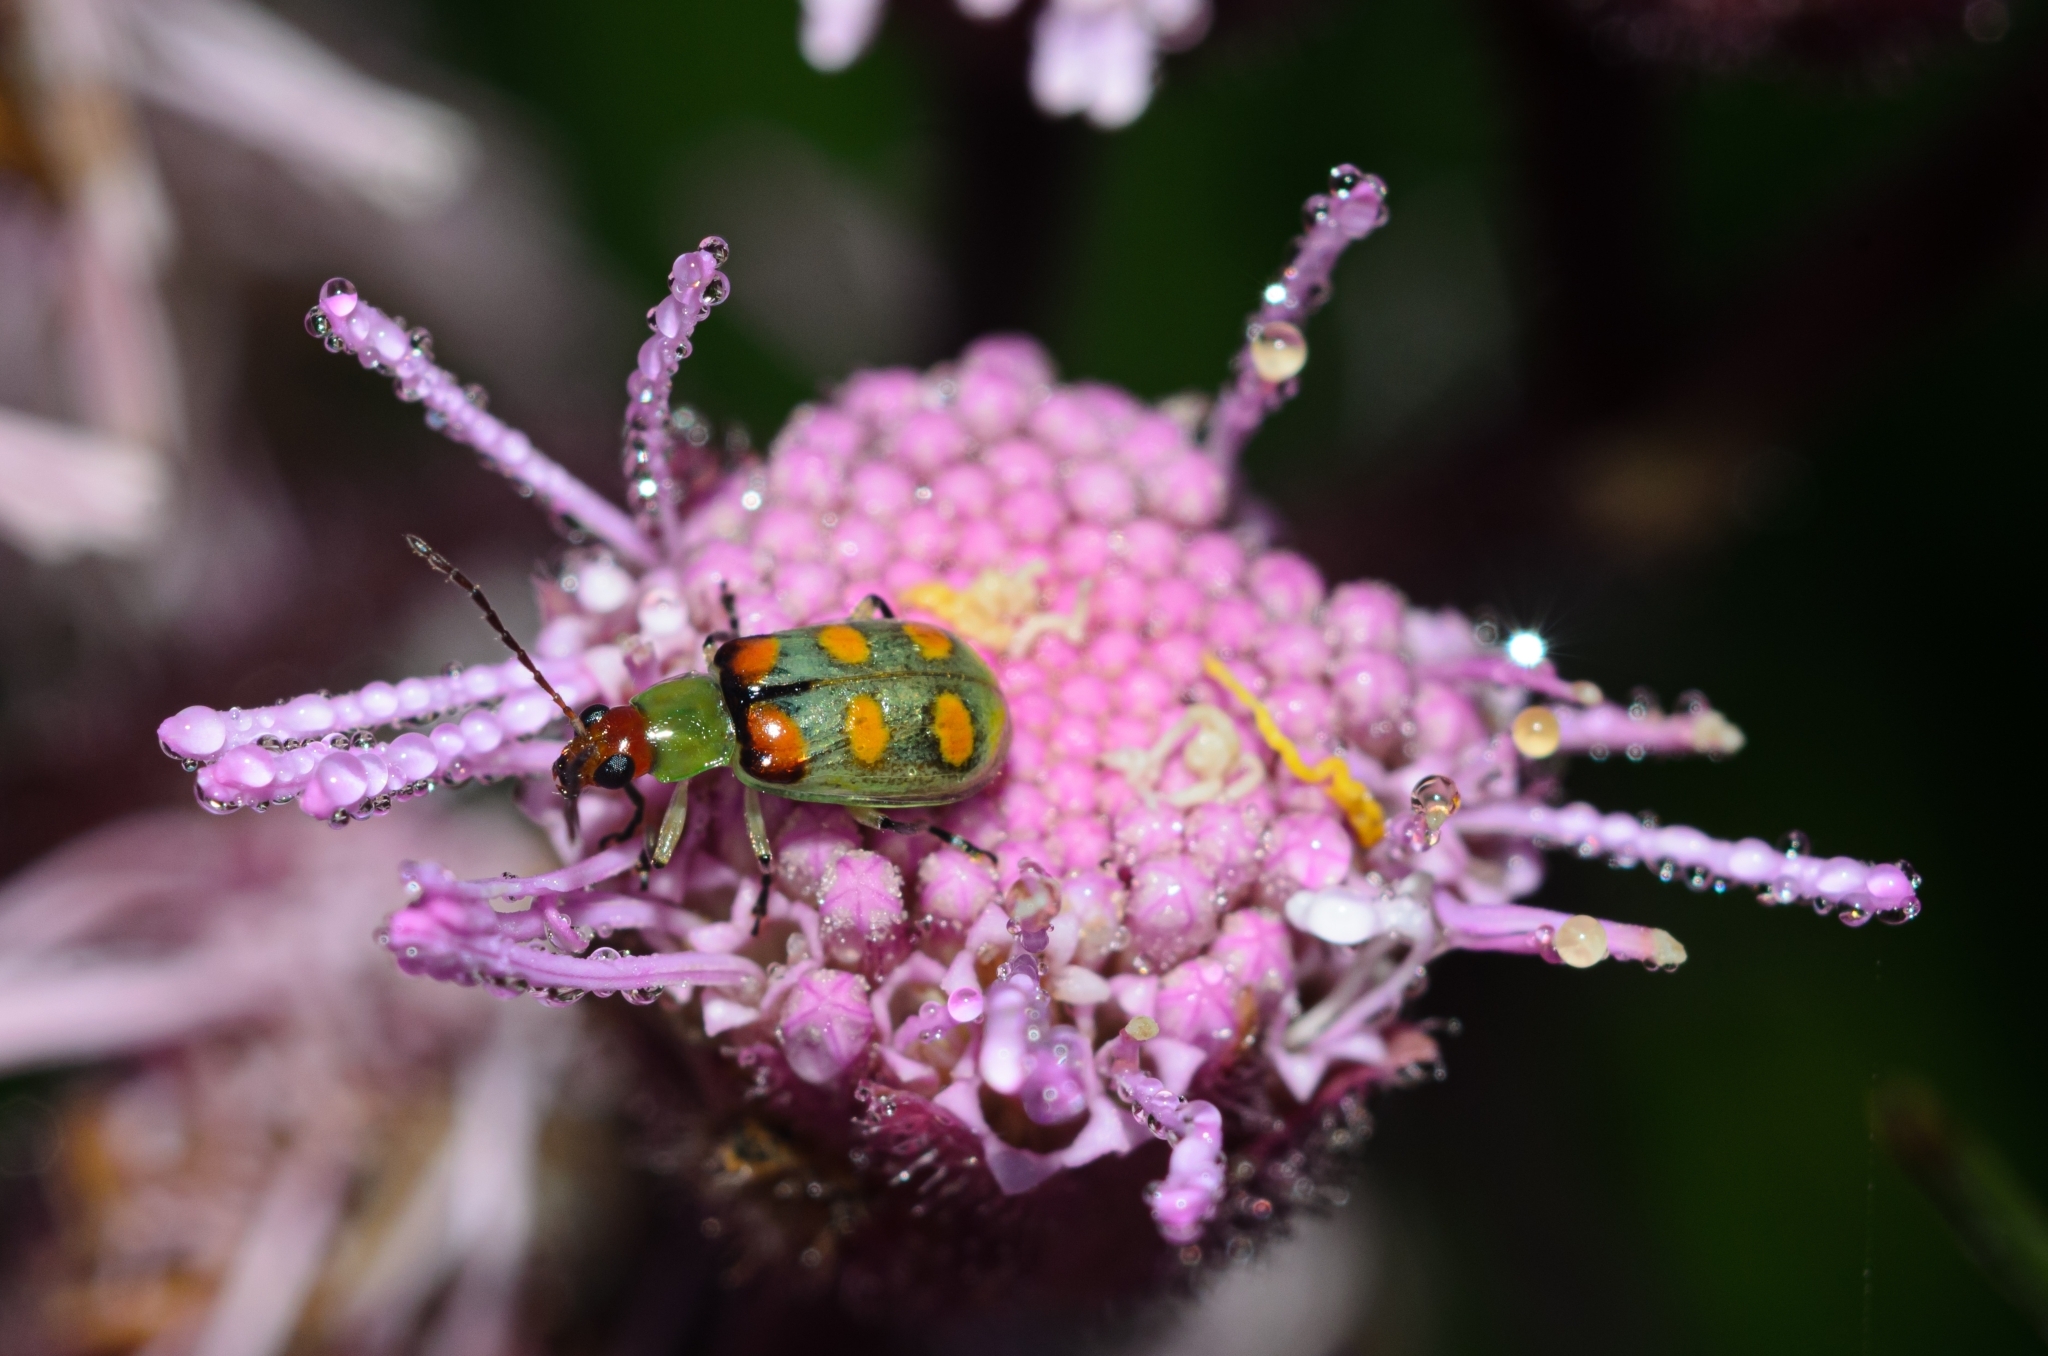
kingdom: Animalia
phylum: Arthropoda
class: Insecta
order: Coleoptera
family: Chrysomelidae
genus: Diabrotica
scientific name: Diabrotica speciosa
